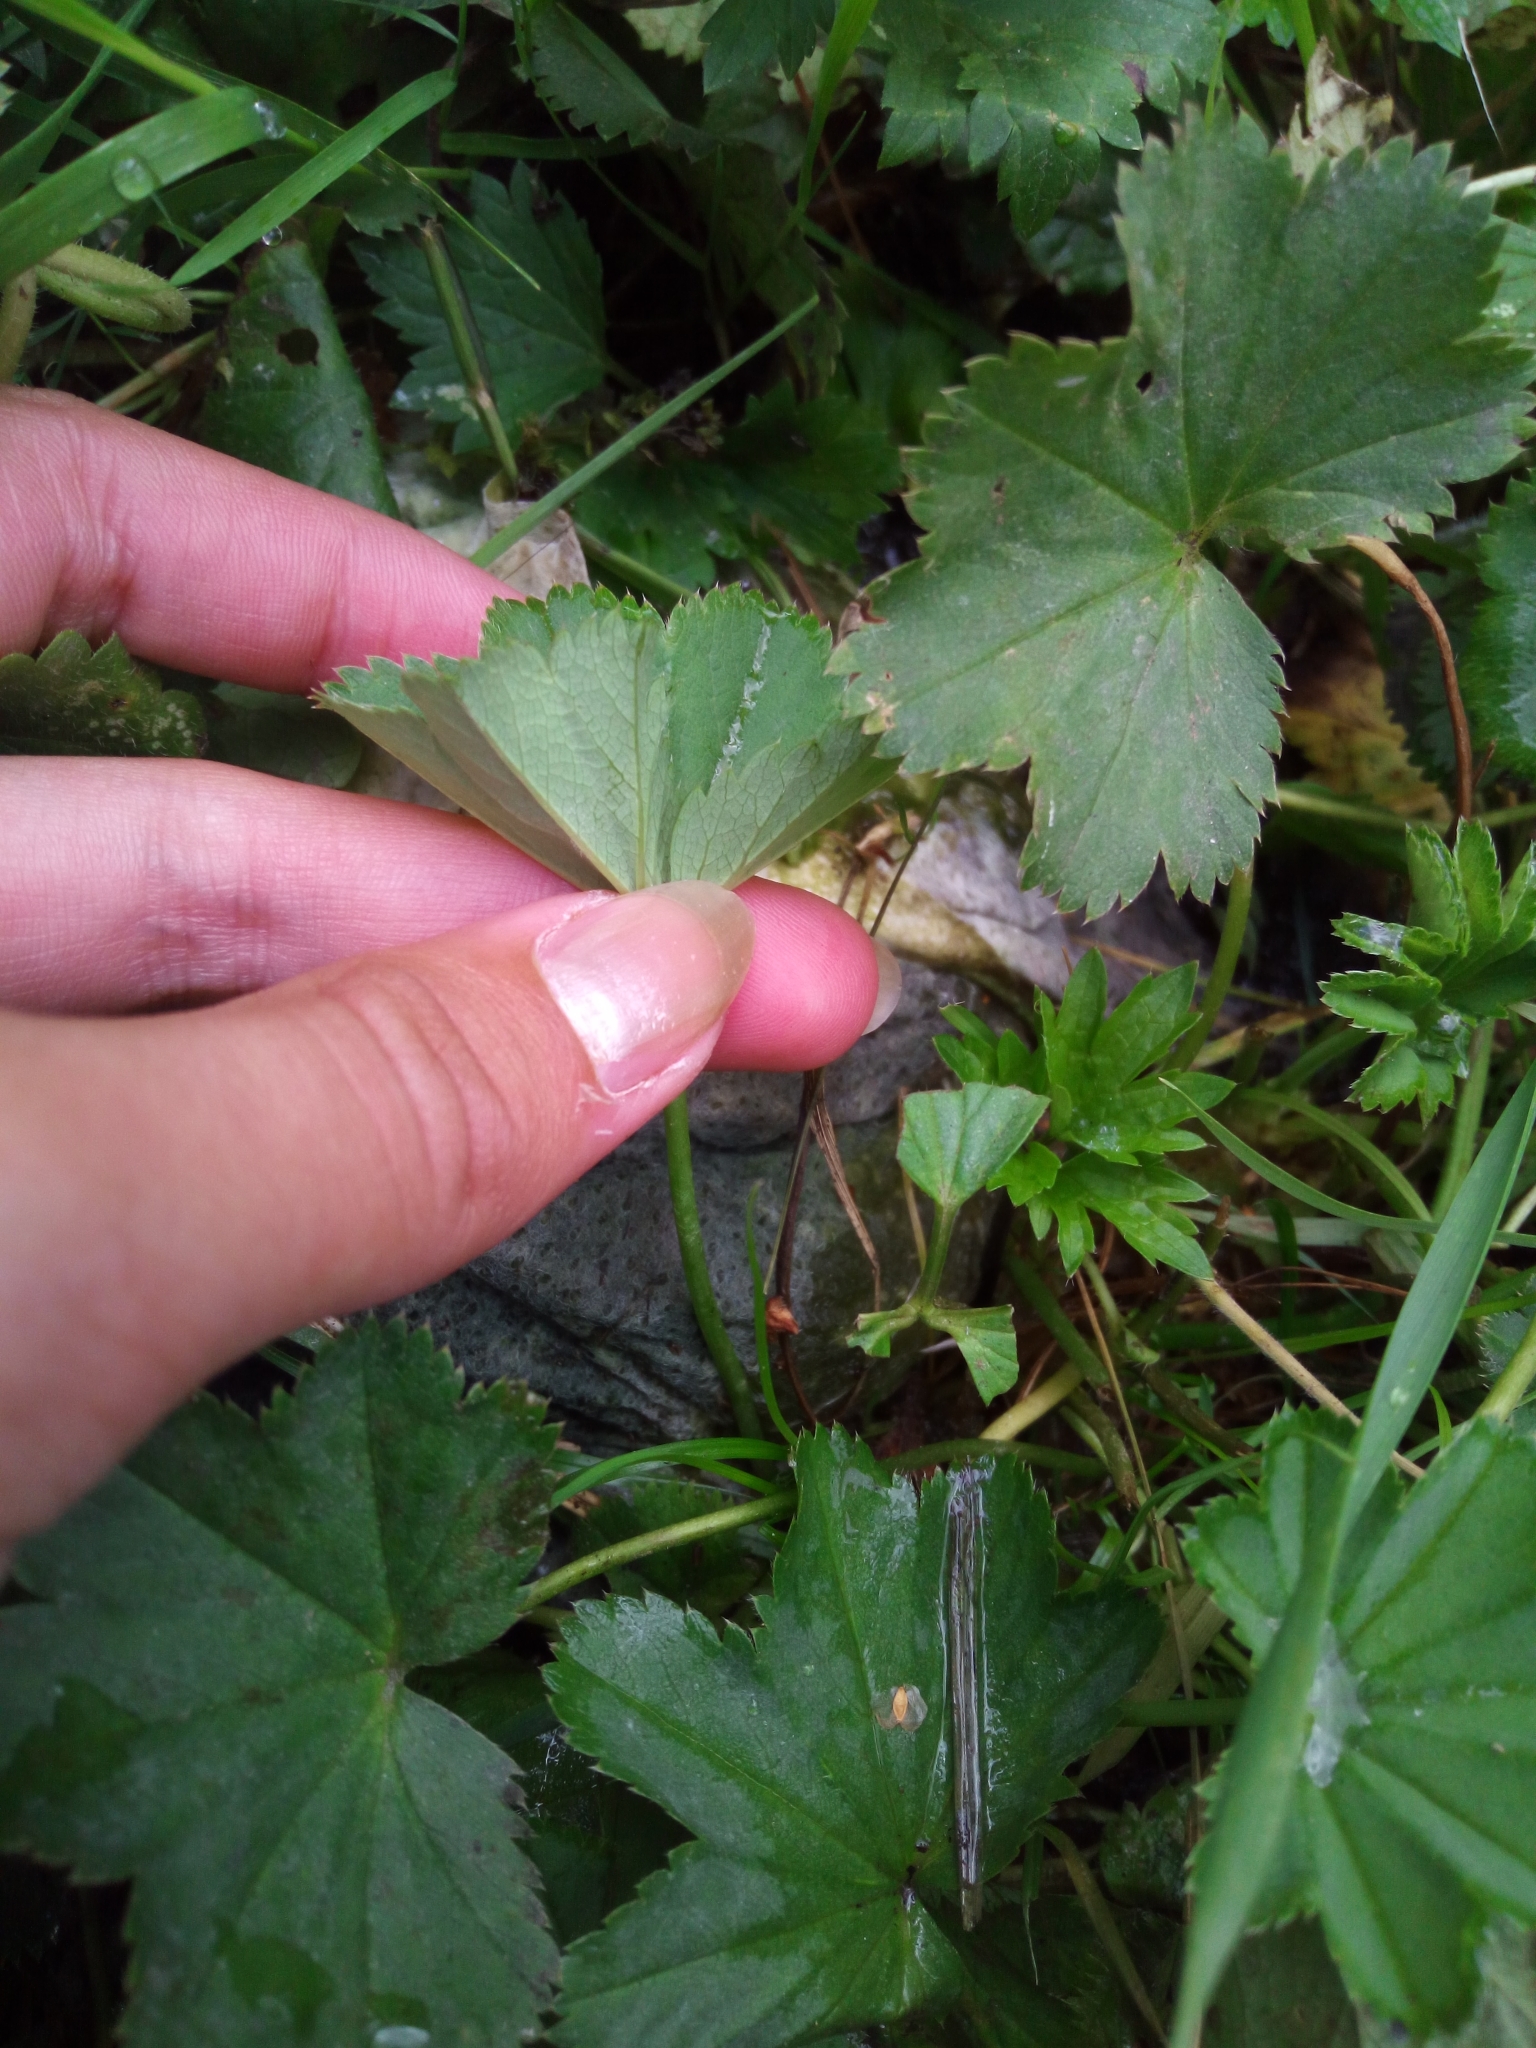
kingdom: Plantae
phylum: Tracheophyta
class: Magnoliopsida
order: Rosales
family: Rosaceae
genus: Alchemilla
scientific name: Alchemilla
